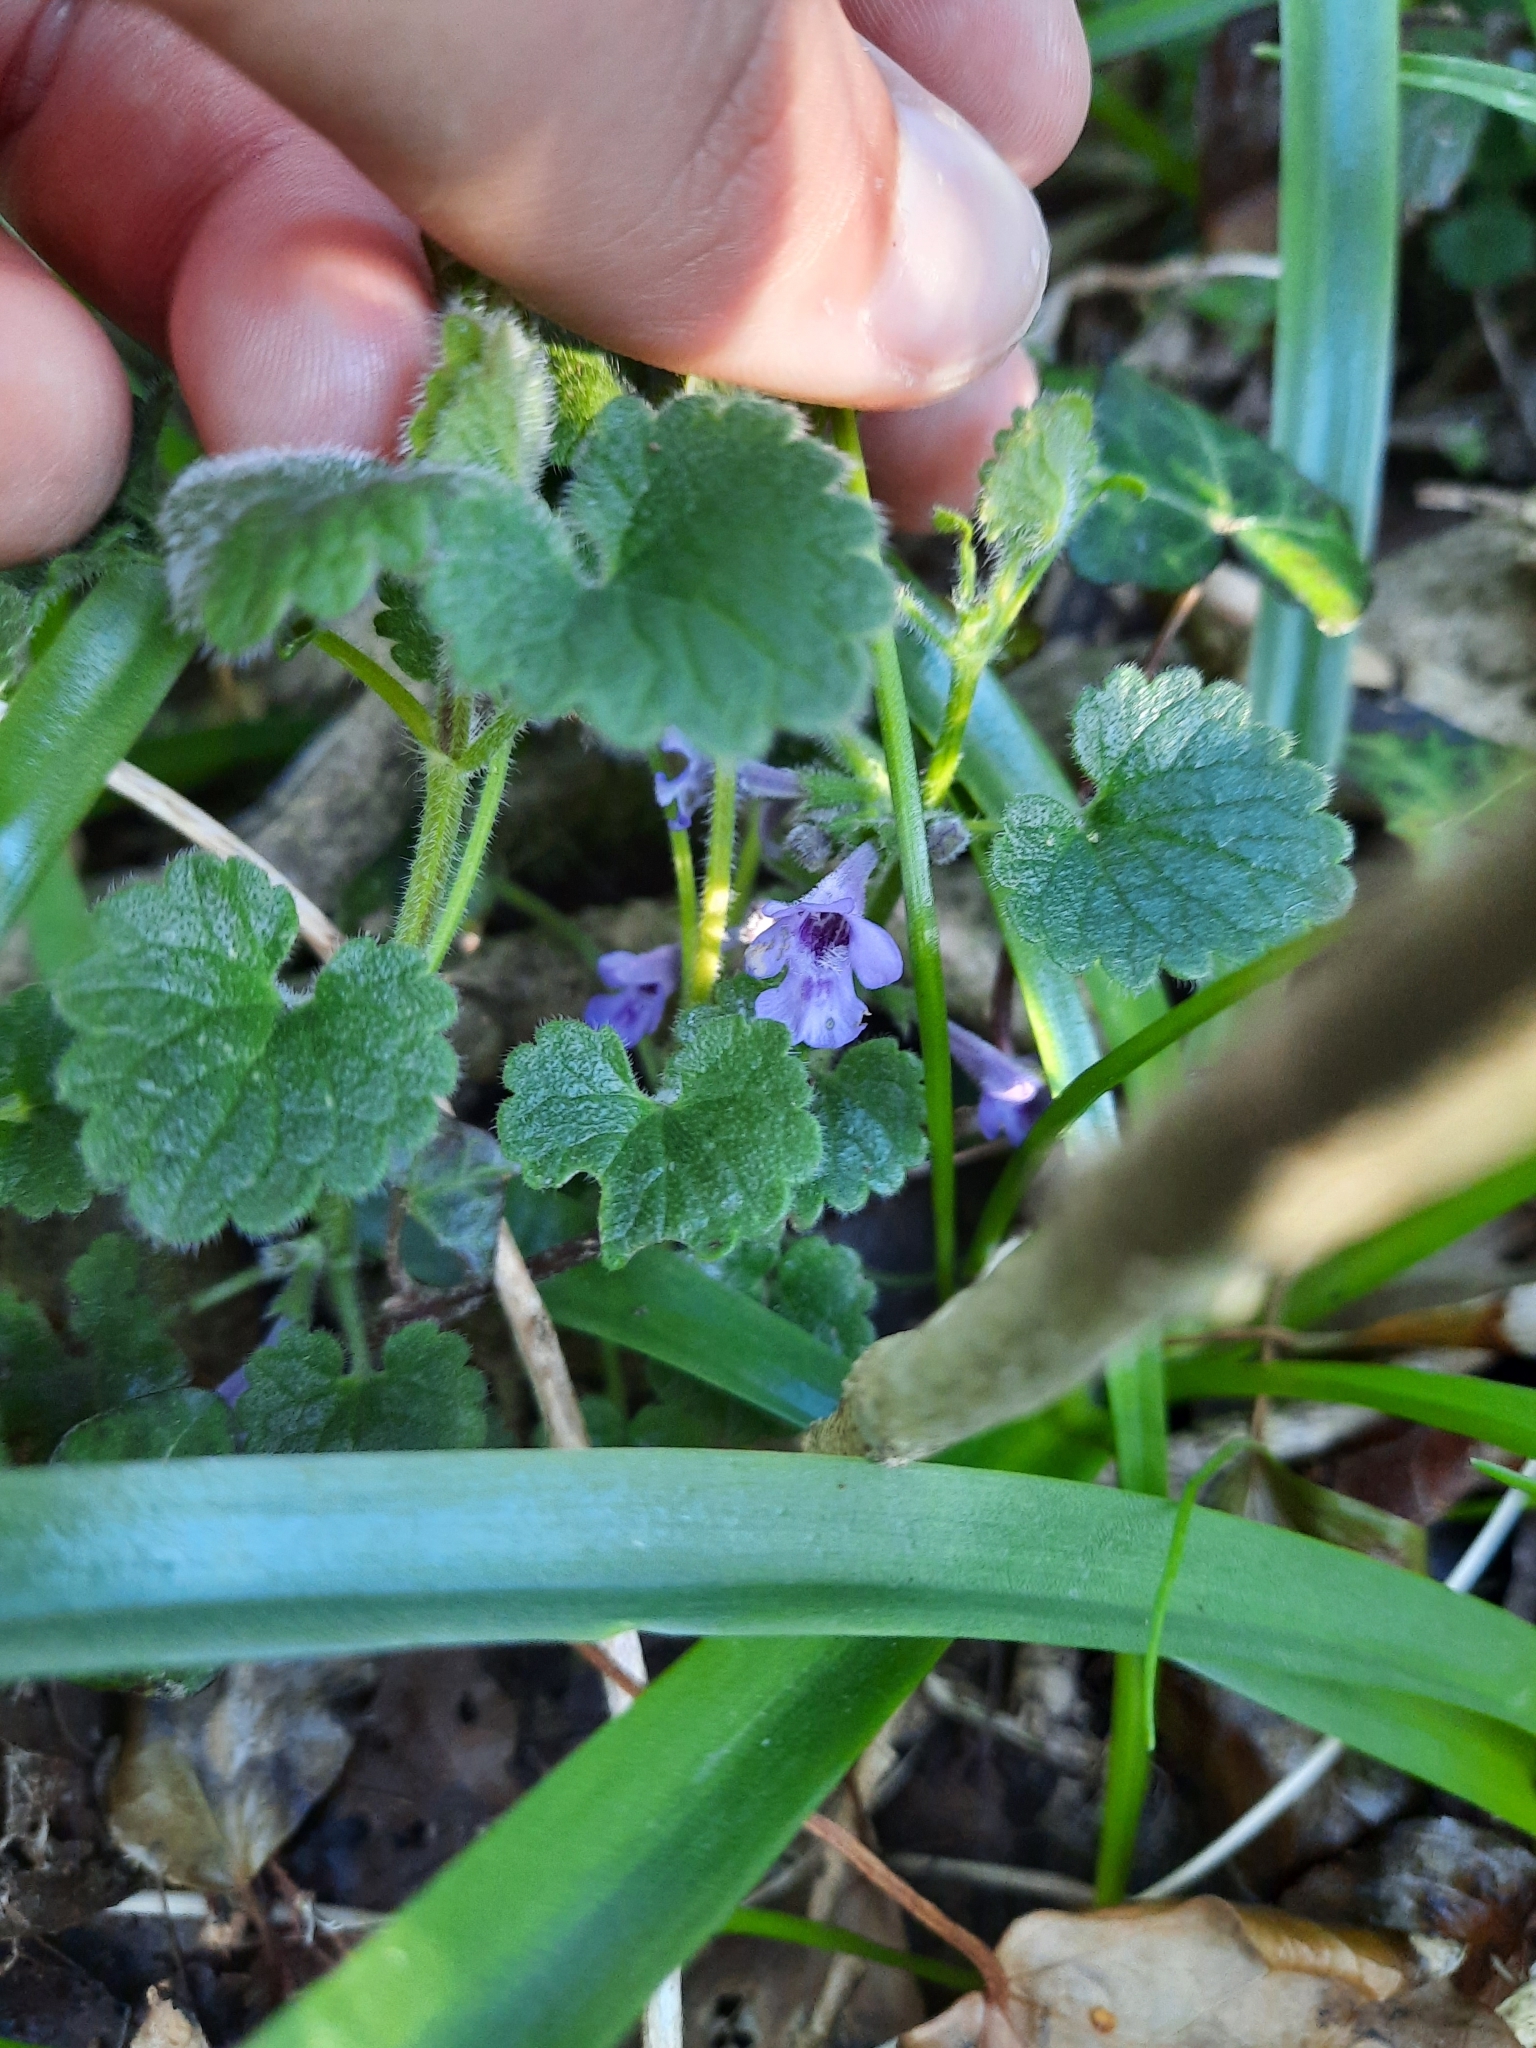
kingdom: Plantae
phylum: Tracheophyta
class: Magnoliopsida
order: Lamiales
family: Lamiaceae
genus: Glechoma
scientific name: Glechoma hederacea
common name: Ground ivy
